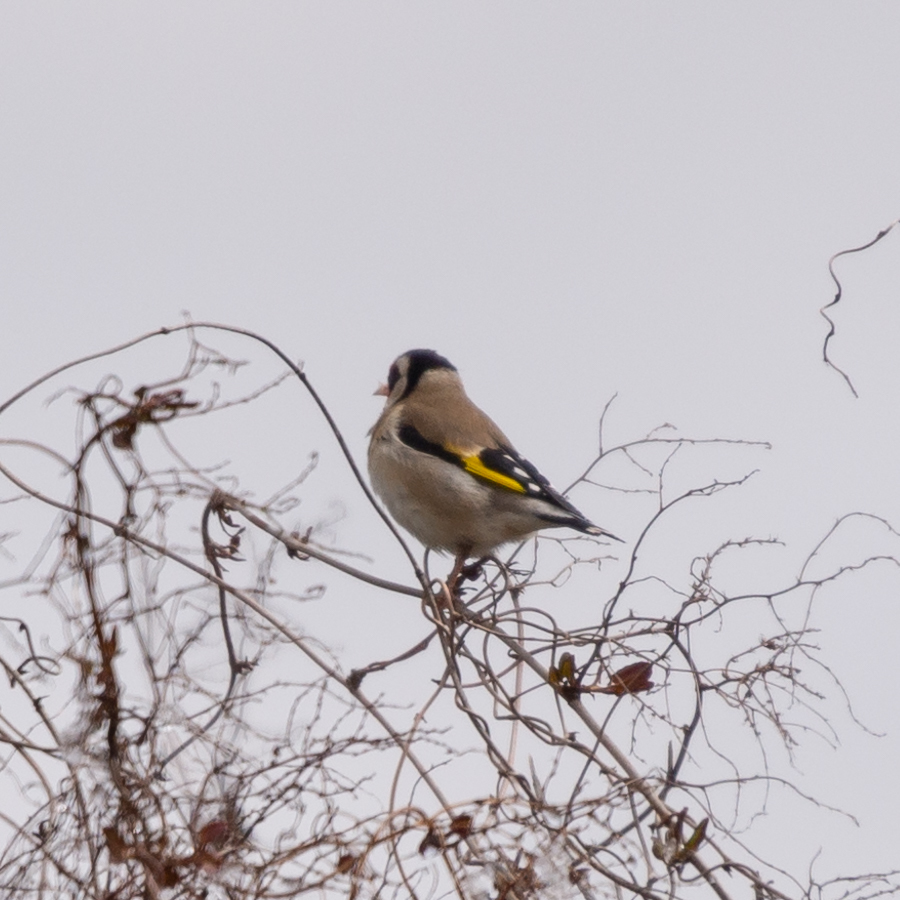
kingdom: Animalia
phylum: Chordata
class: Aves
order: Passeriformes
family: Fringillidae
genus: Carduelis
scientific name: Carduelis carduelis
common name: European goldfinch
